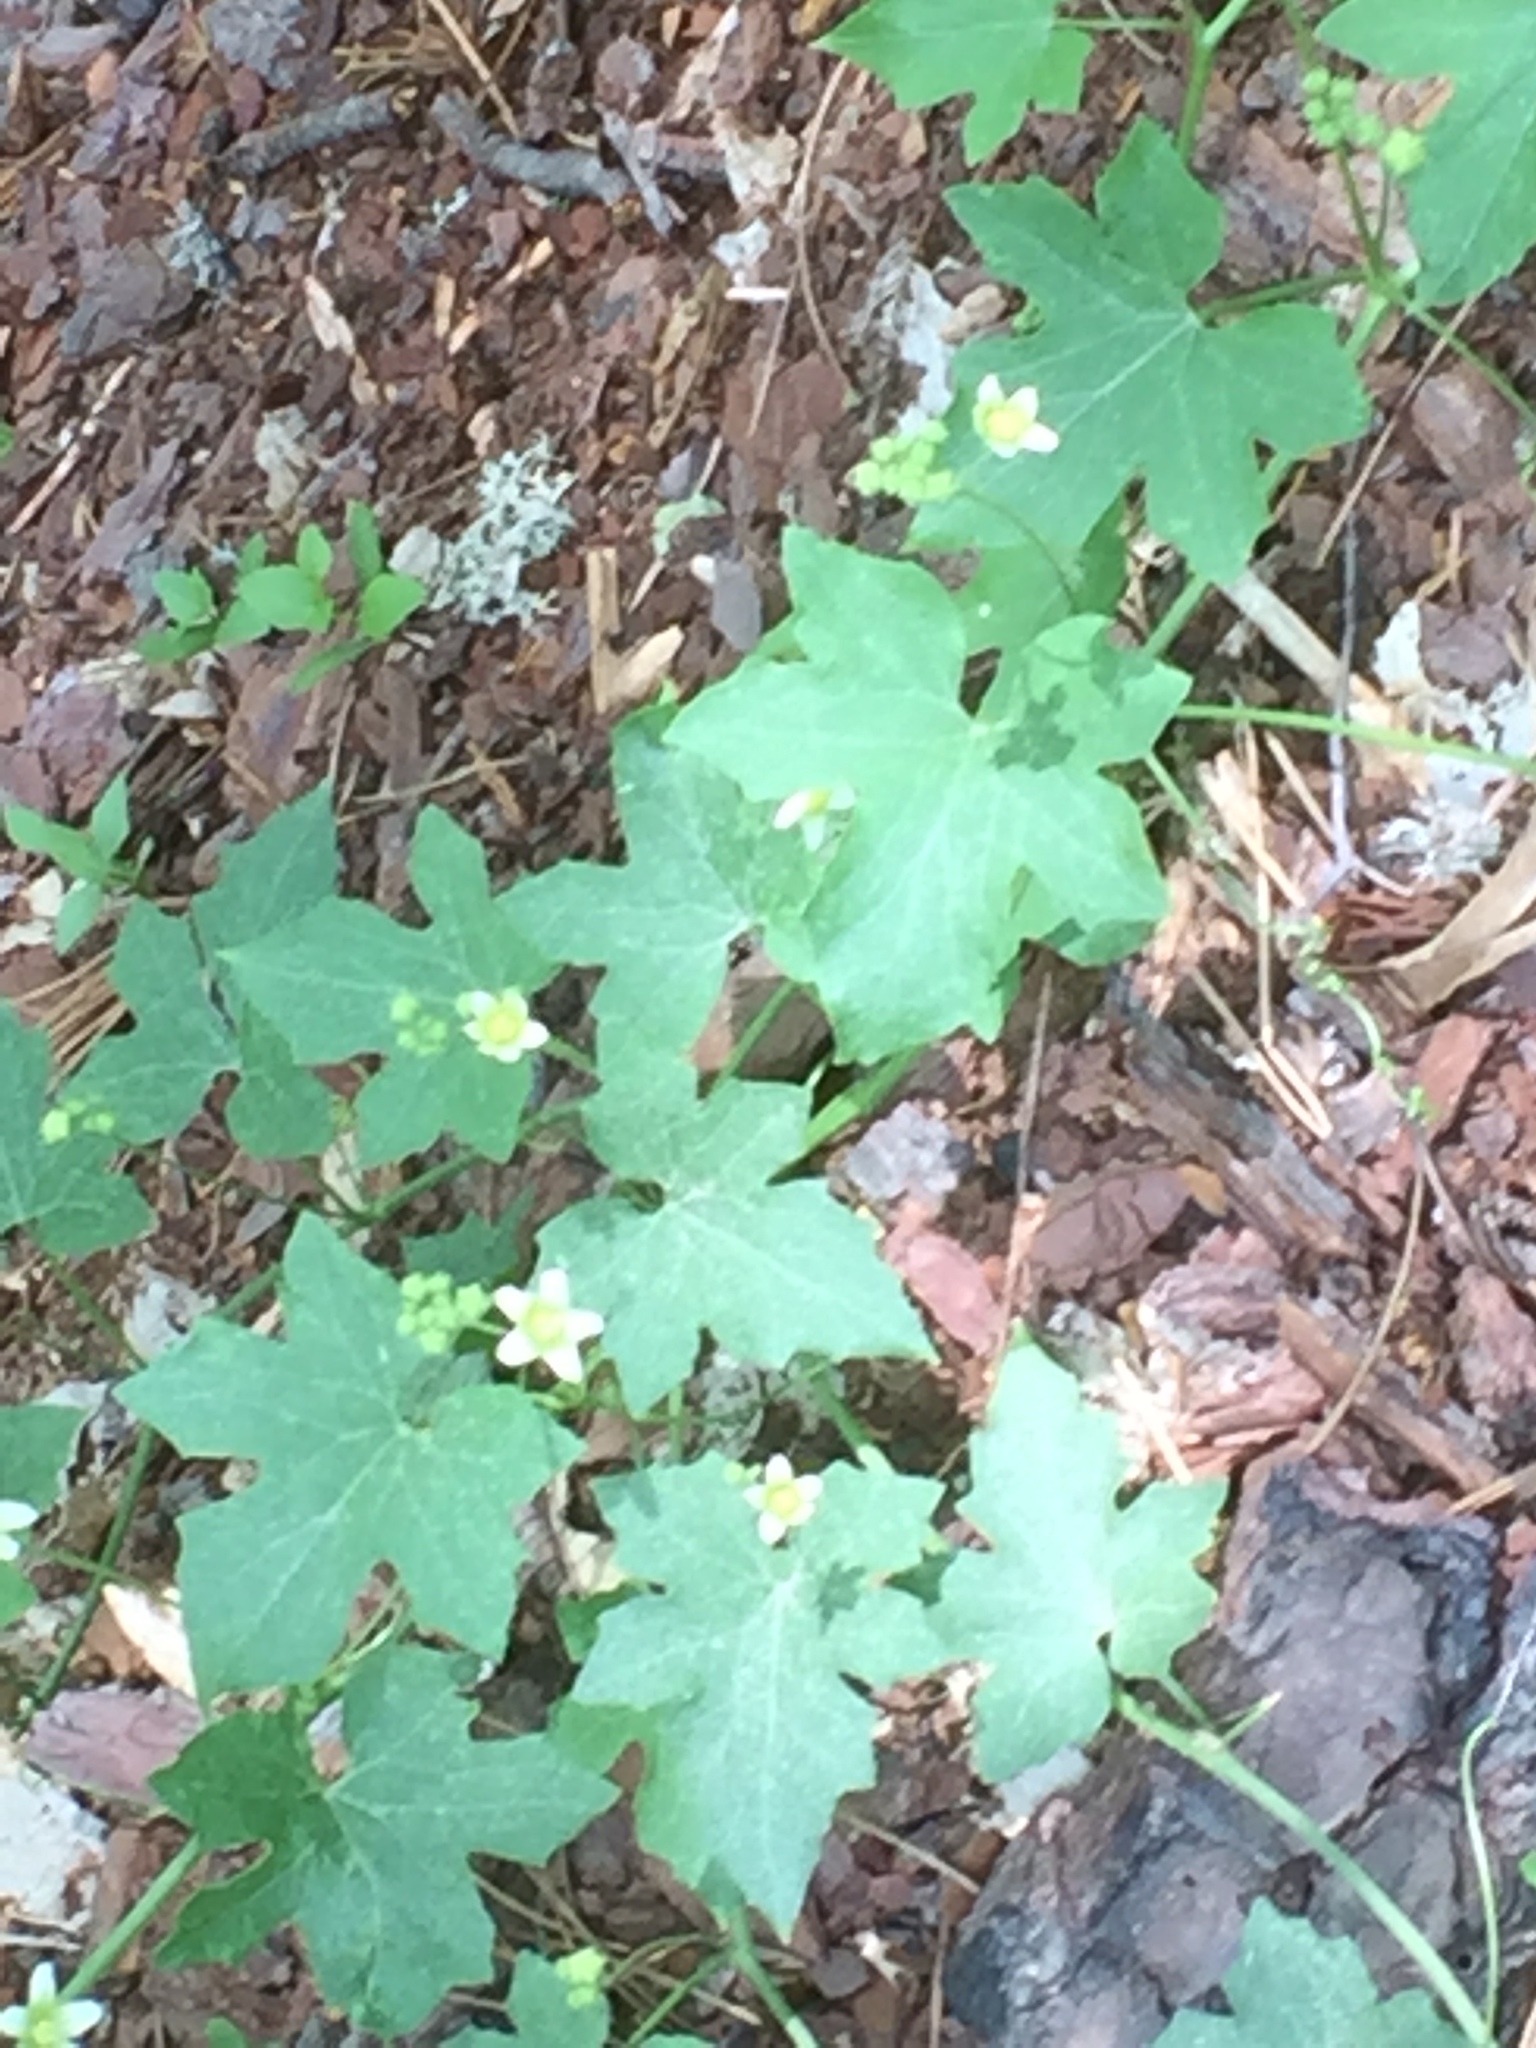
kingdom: Plantae
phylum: Tracheophyta
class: Magnoliopsida
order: Cucurbitales
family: Cucurbitaceae
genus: Bryonia
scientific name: Bryonia dioica
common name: White bryony
